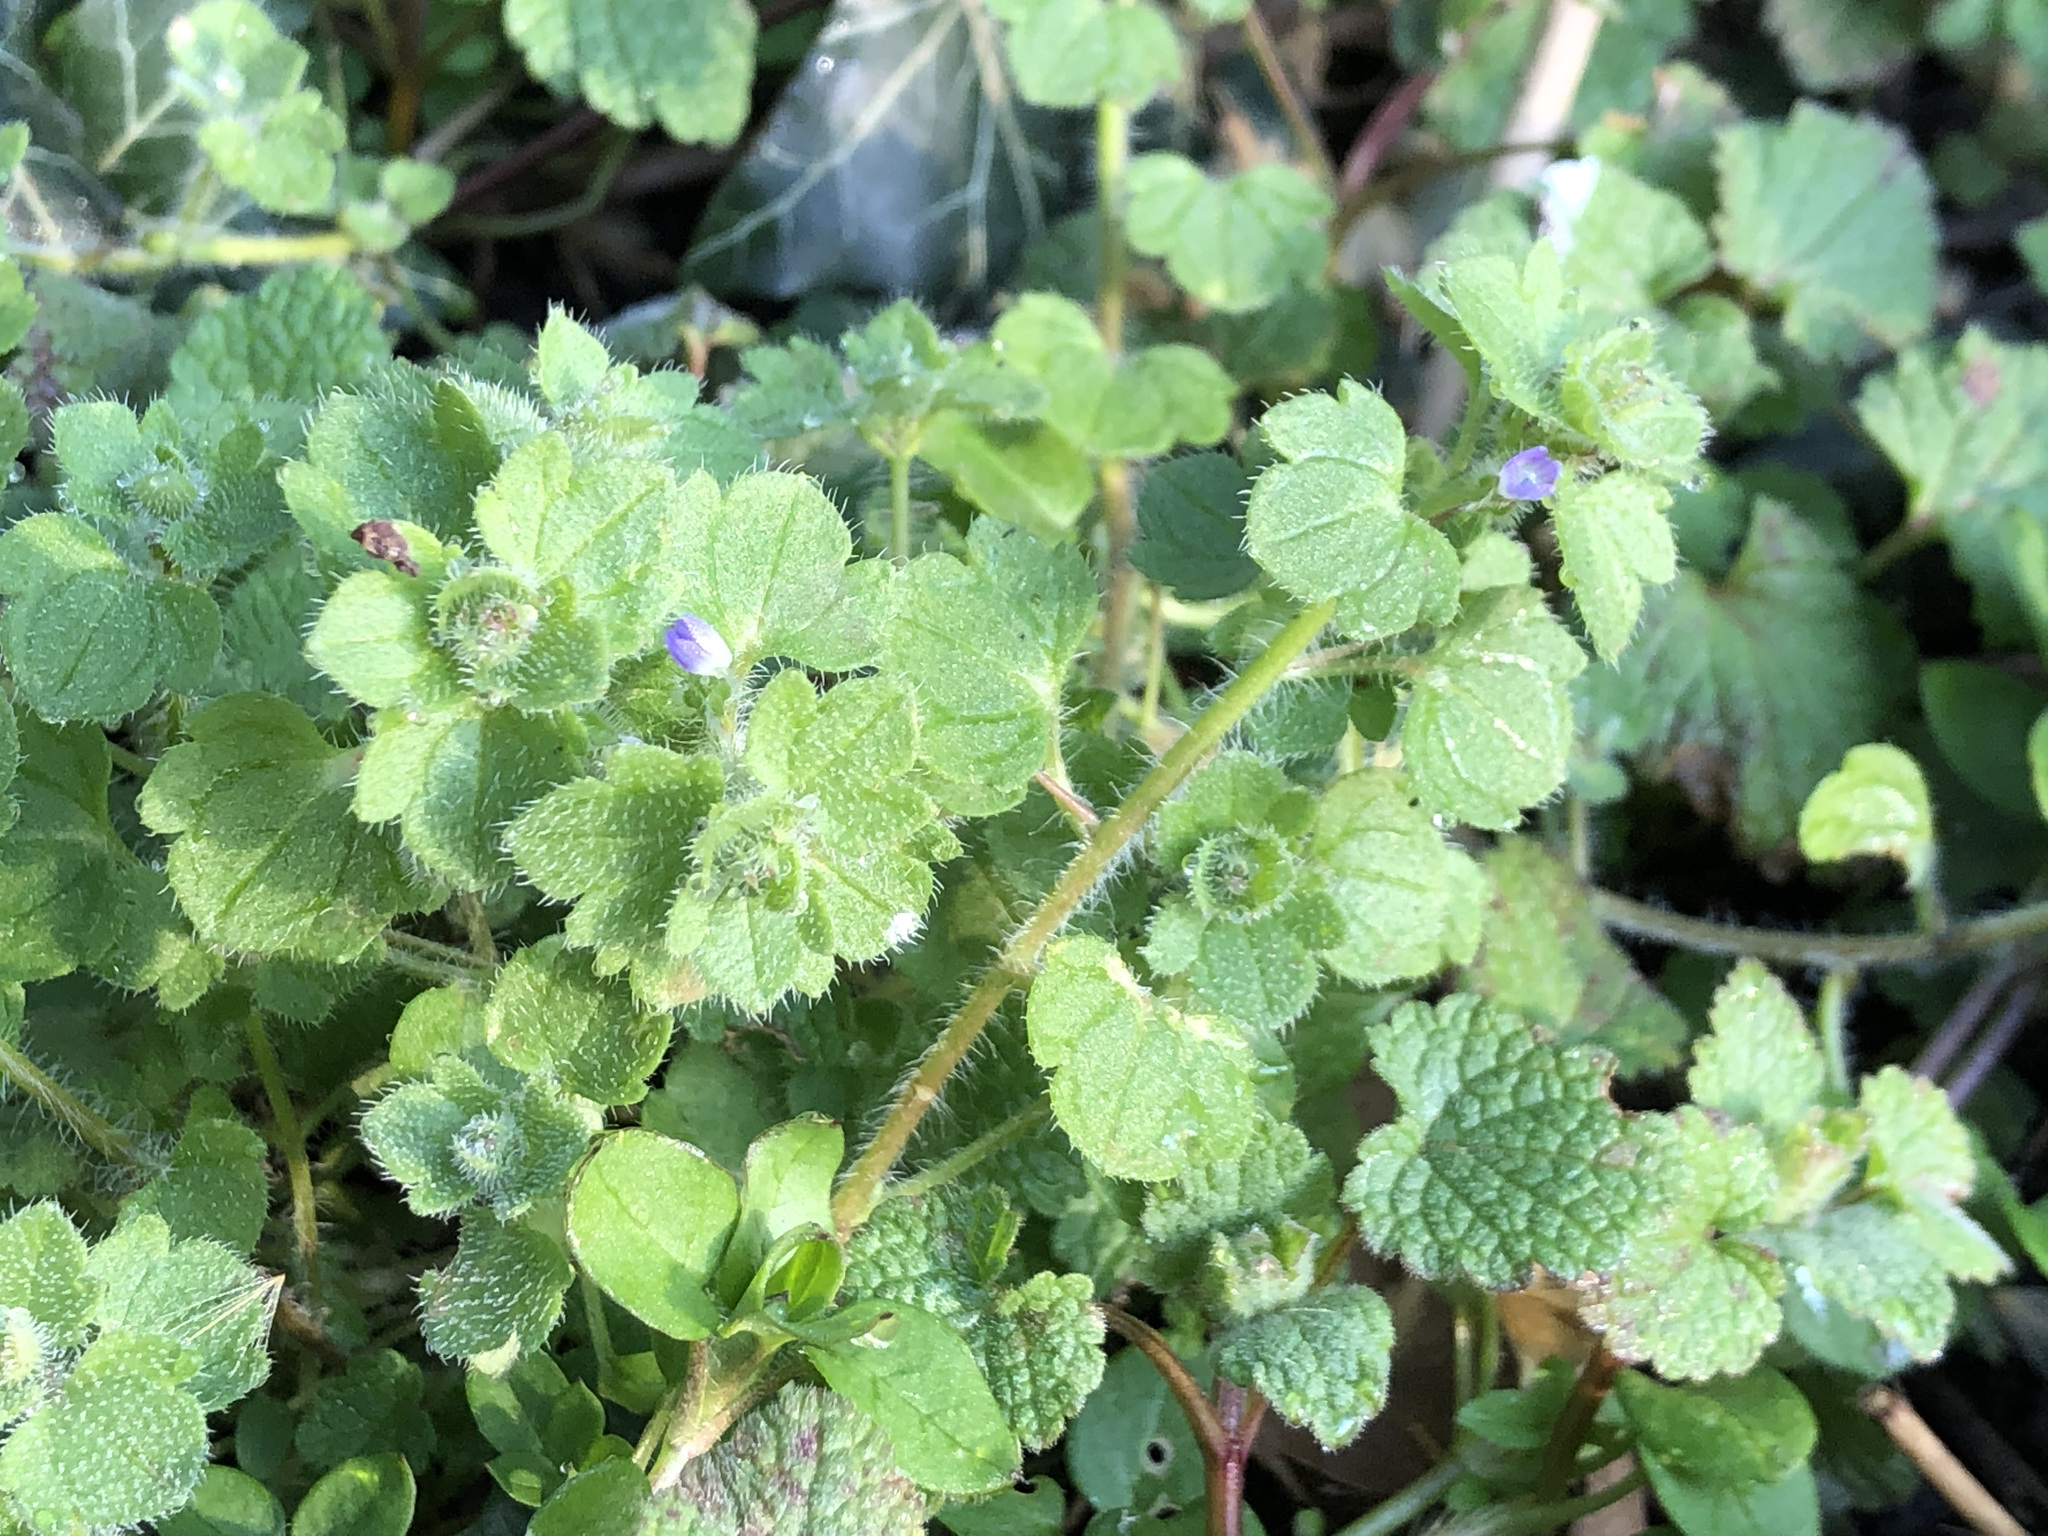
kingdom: Plantae
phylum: Tracheophyta
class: Magnoliopsida
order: Lamiales
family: Plantaginaceae
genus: Veronica
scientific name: Veronica hederifolia
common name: Ivy-leaved speedwell
